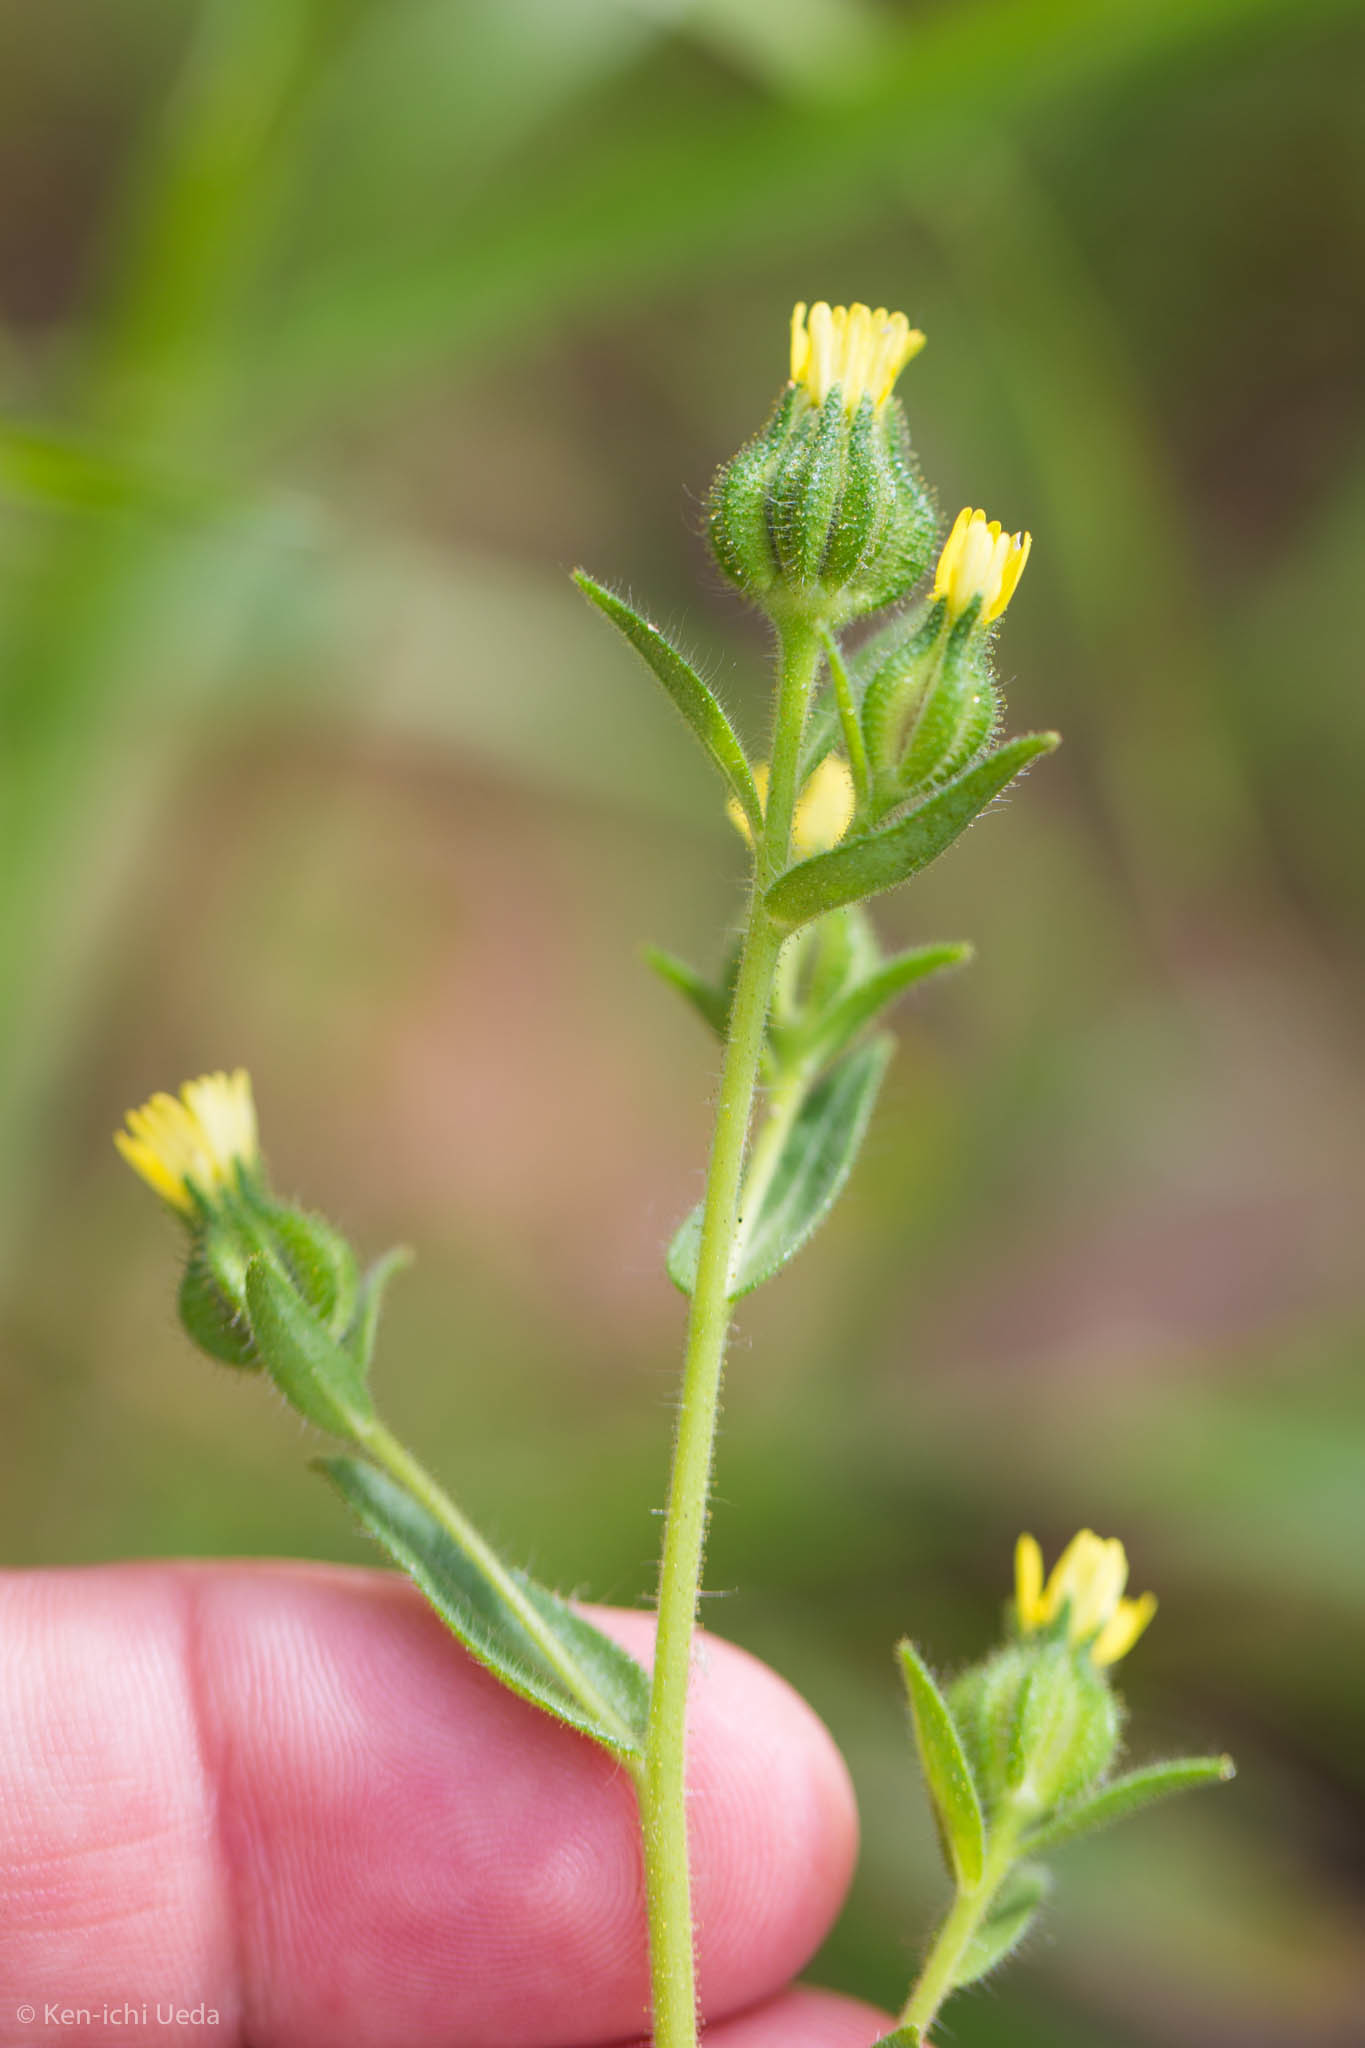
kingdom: Plantae
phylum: Tracheophyta
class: Magnoliopsida
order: Asterales
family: Asteraceae
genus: Madia
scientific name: Madia gracilis
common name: Grassy tarweed
